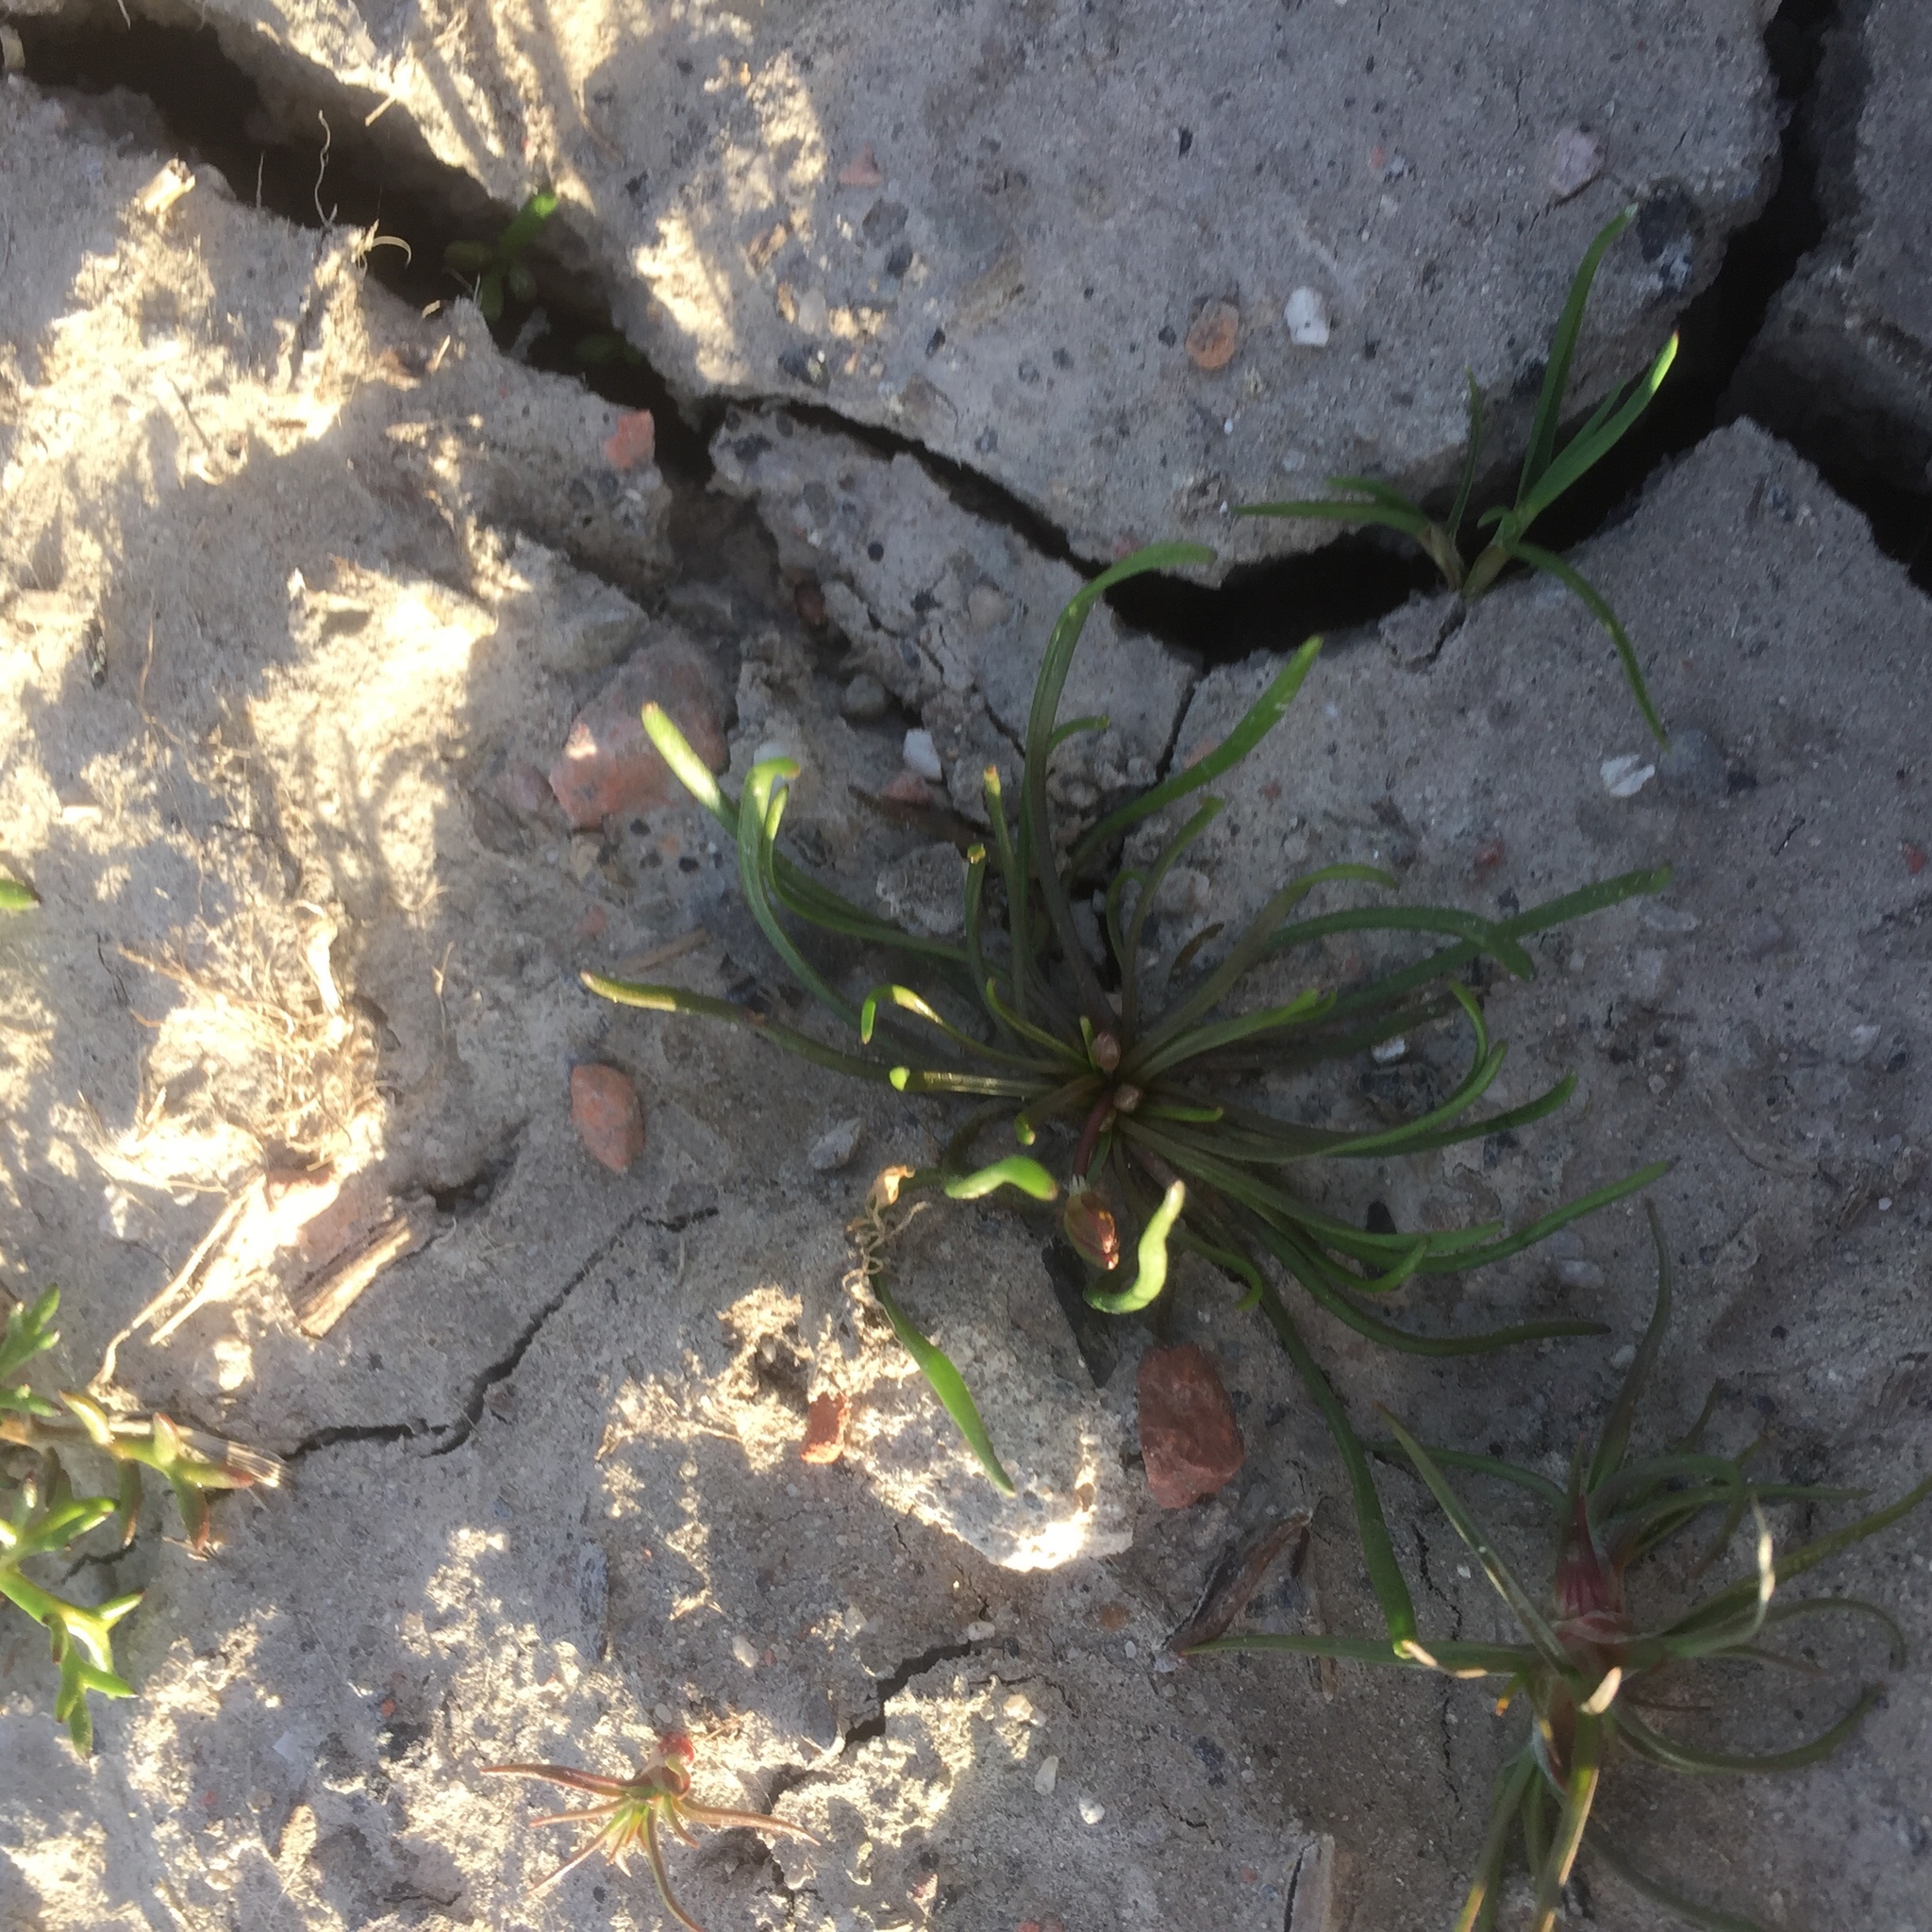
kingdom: Plantae
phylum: Tracheophyta
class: Magnoliopsida
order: Ranunculales
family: Ranunculaceae
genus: Myosurus
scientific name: Myosurus minimus
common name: Mousetail
